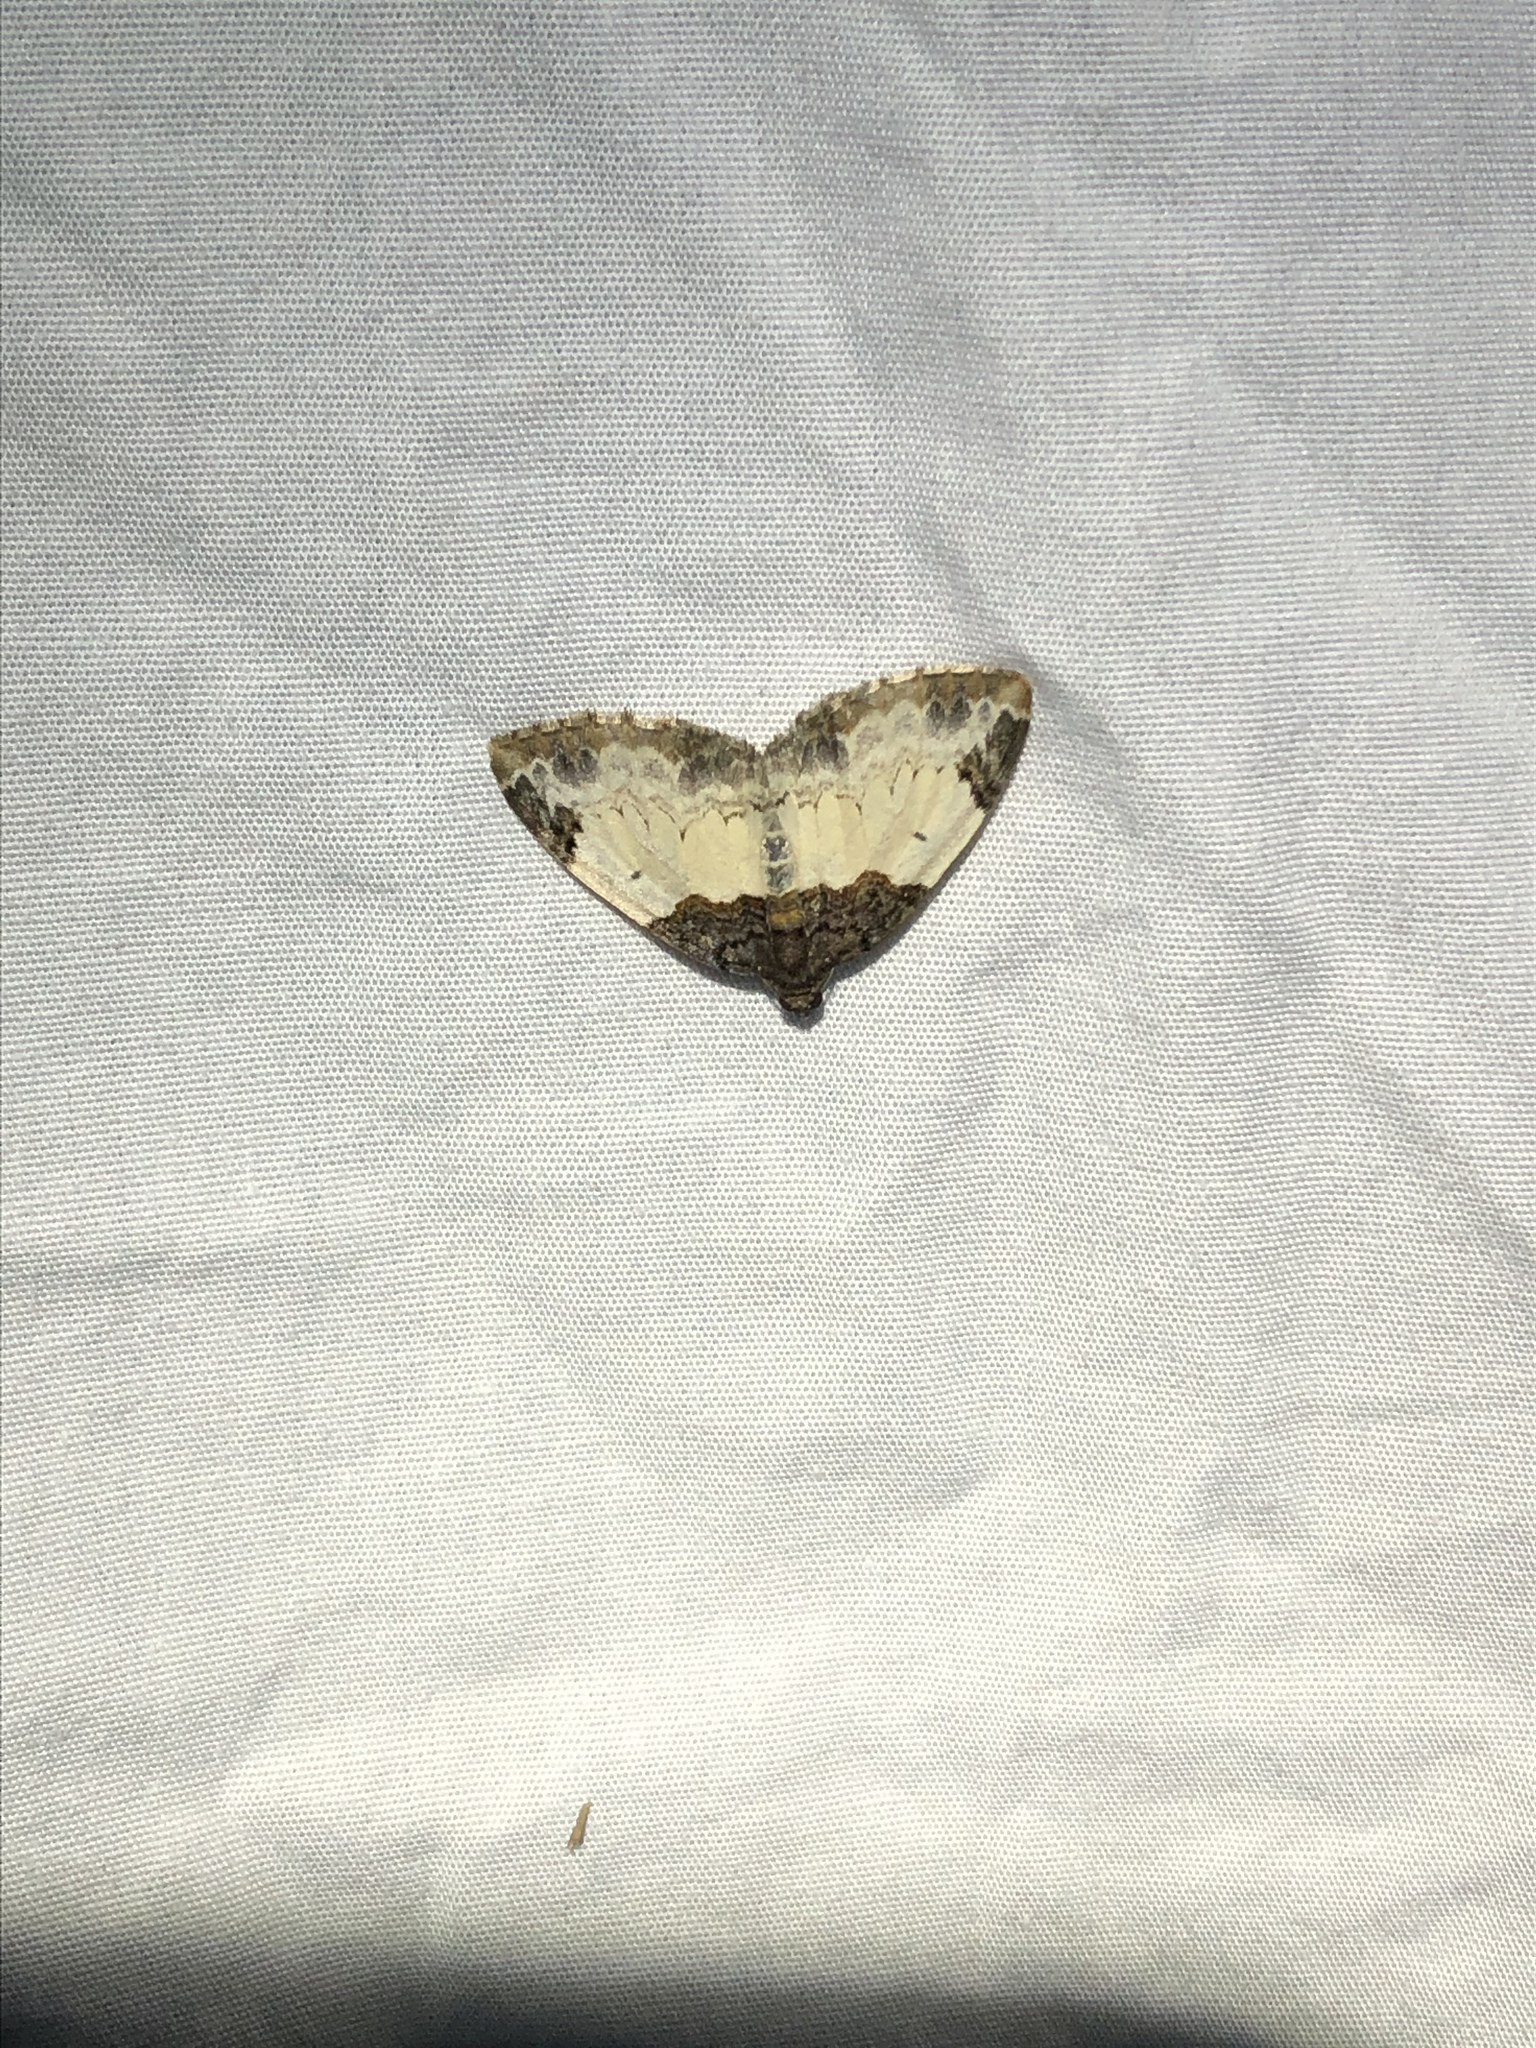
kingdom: Animalia
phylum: Arthropoda
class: Insecta
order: Lepidoptera
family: Geometridae
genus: Mesoleuca
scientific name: Mesoleuca ruficillata
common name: White-ribboned carpet moth
